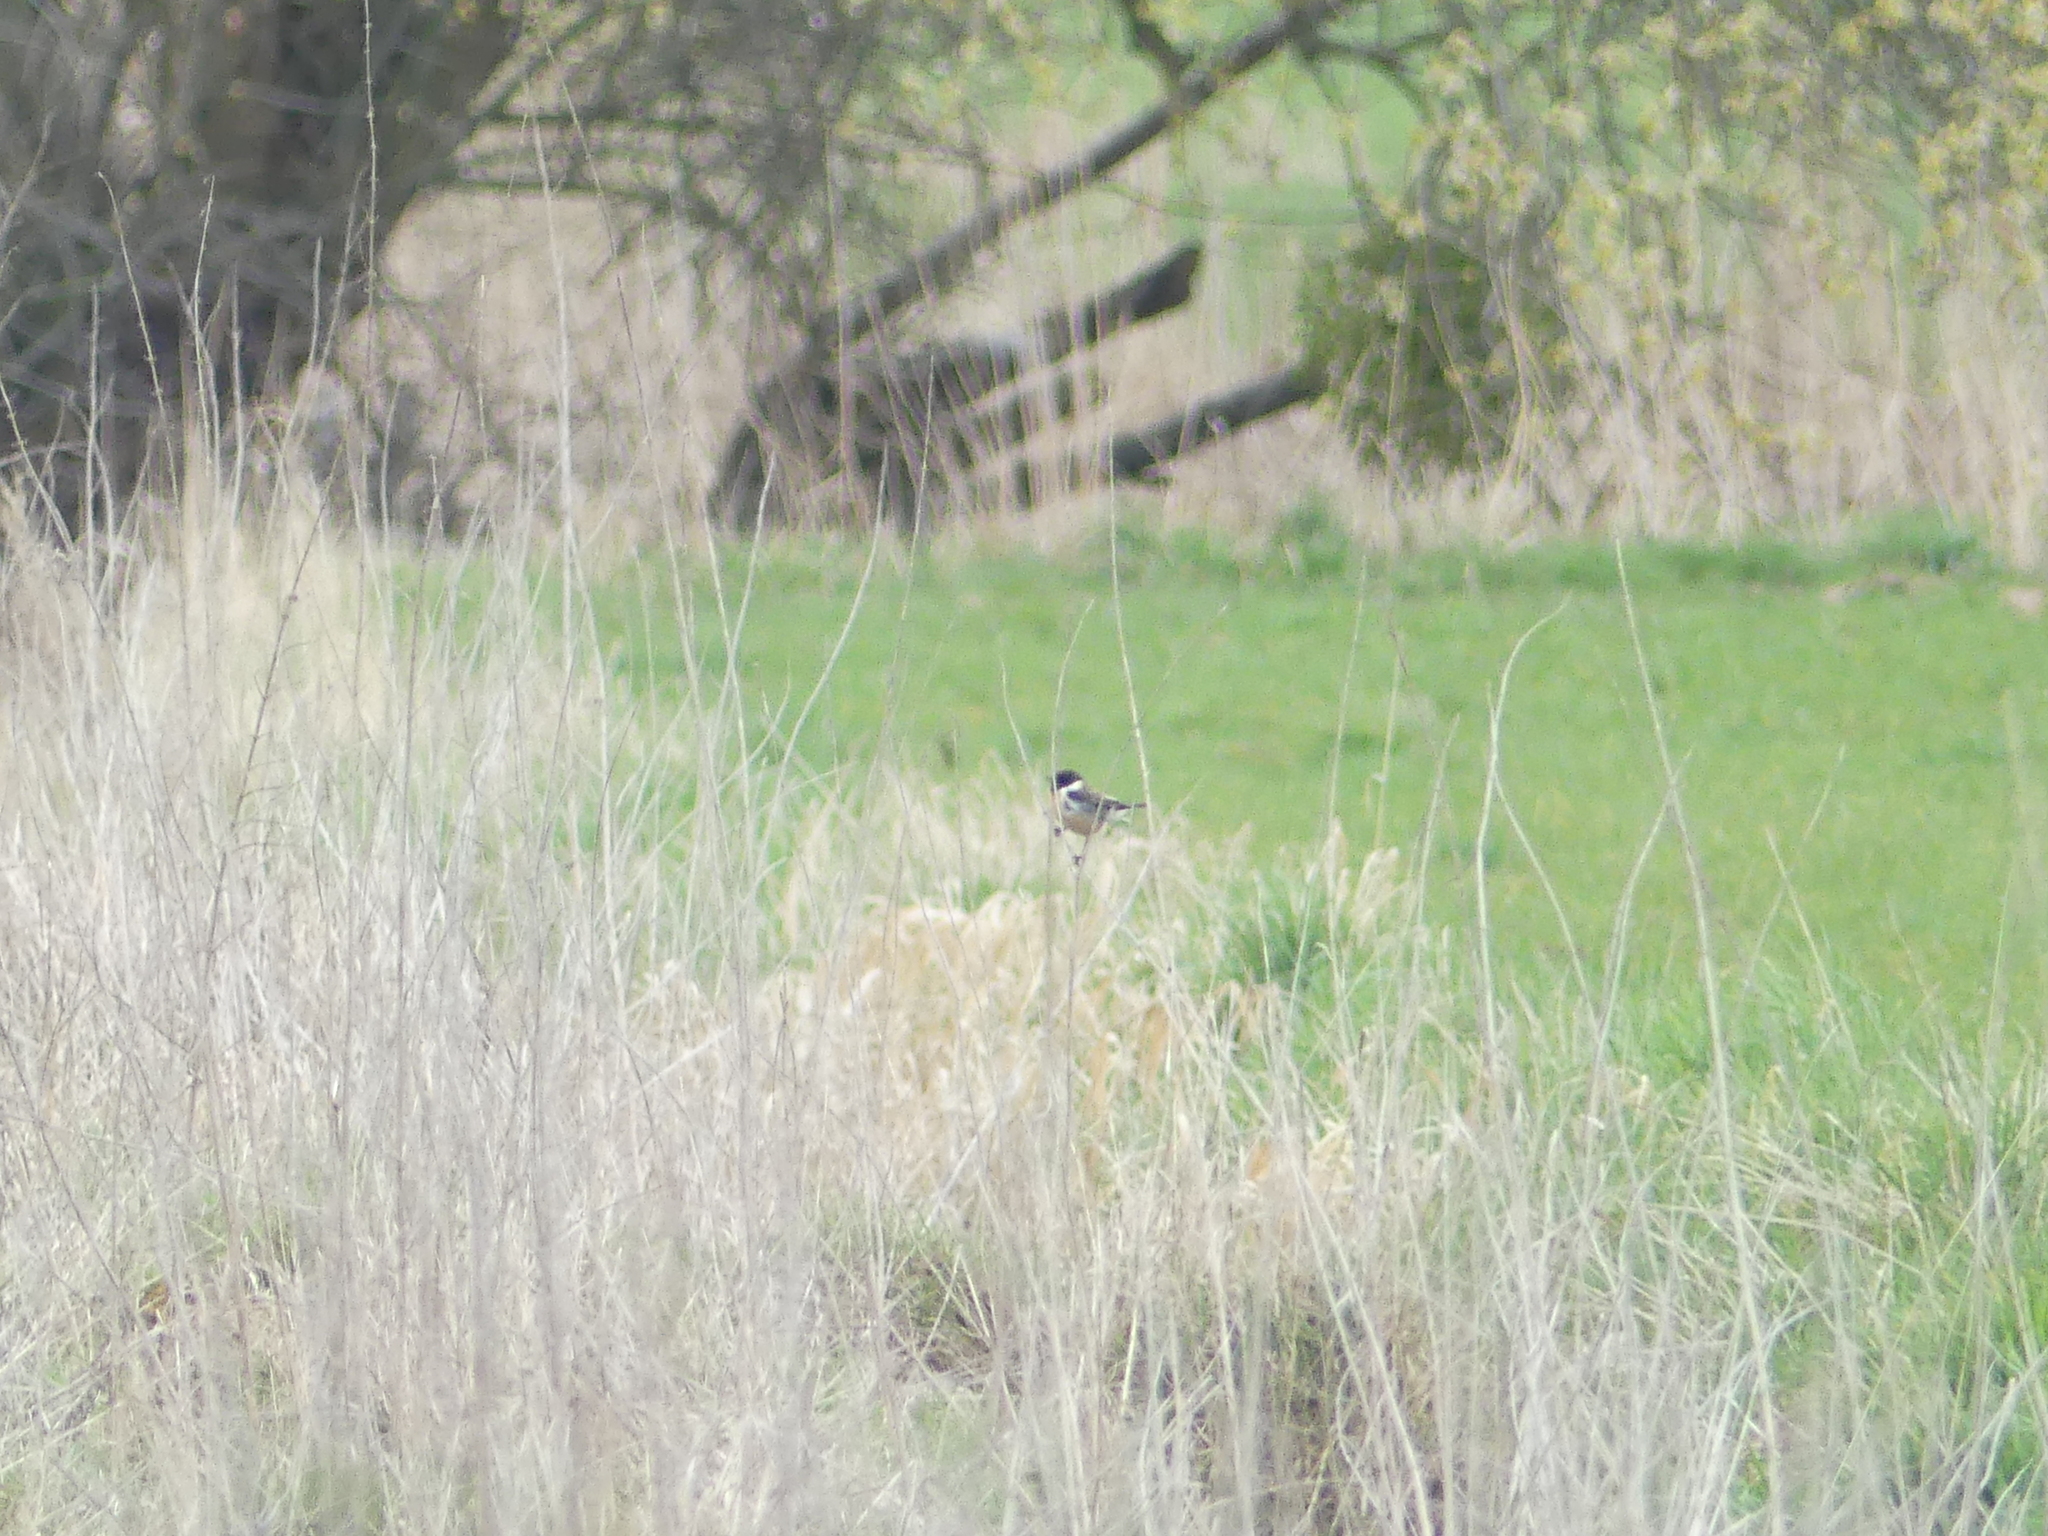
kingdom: Animalia
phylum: Chordata
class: Aves
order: Passeriformes
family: Muscicapidae
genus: Saxicola
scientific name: Saxicola rubicola
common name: European stonechat
